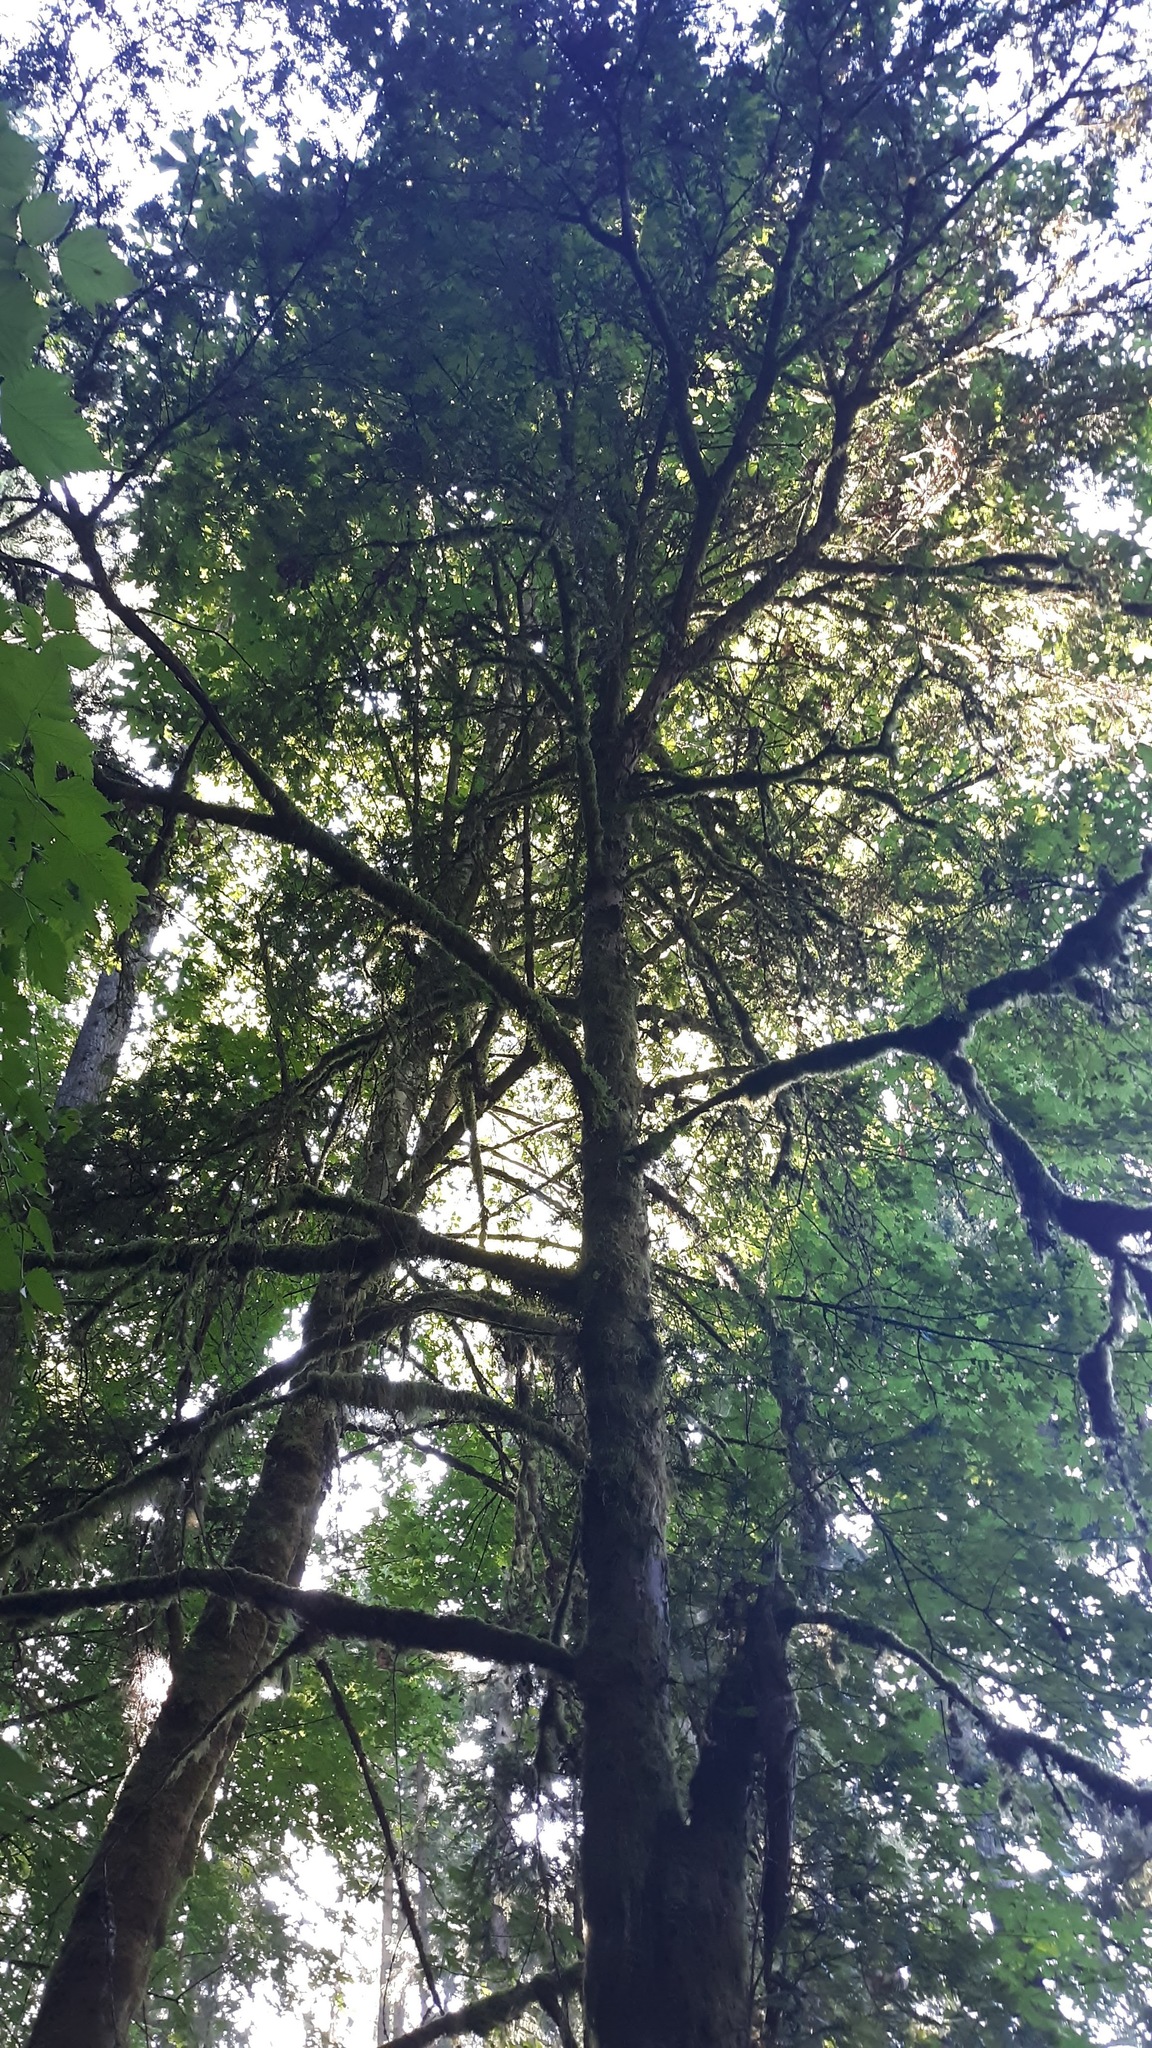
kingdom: Plantae
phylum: Tracheophyta
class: Pinopsida
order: Pinales
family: Taxaceae
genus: Taxus
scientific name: Taxus brevifolia
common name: Pacific yew
